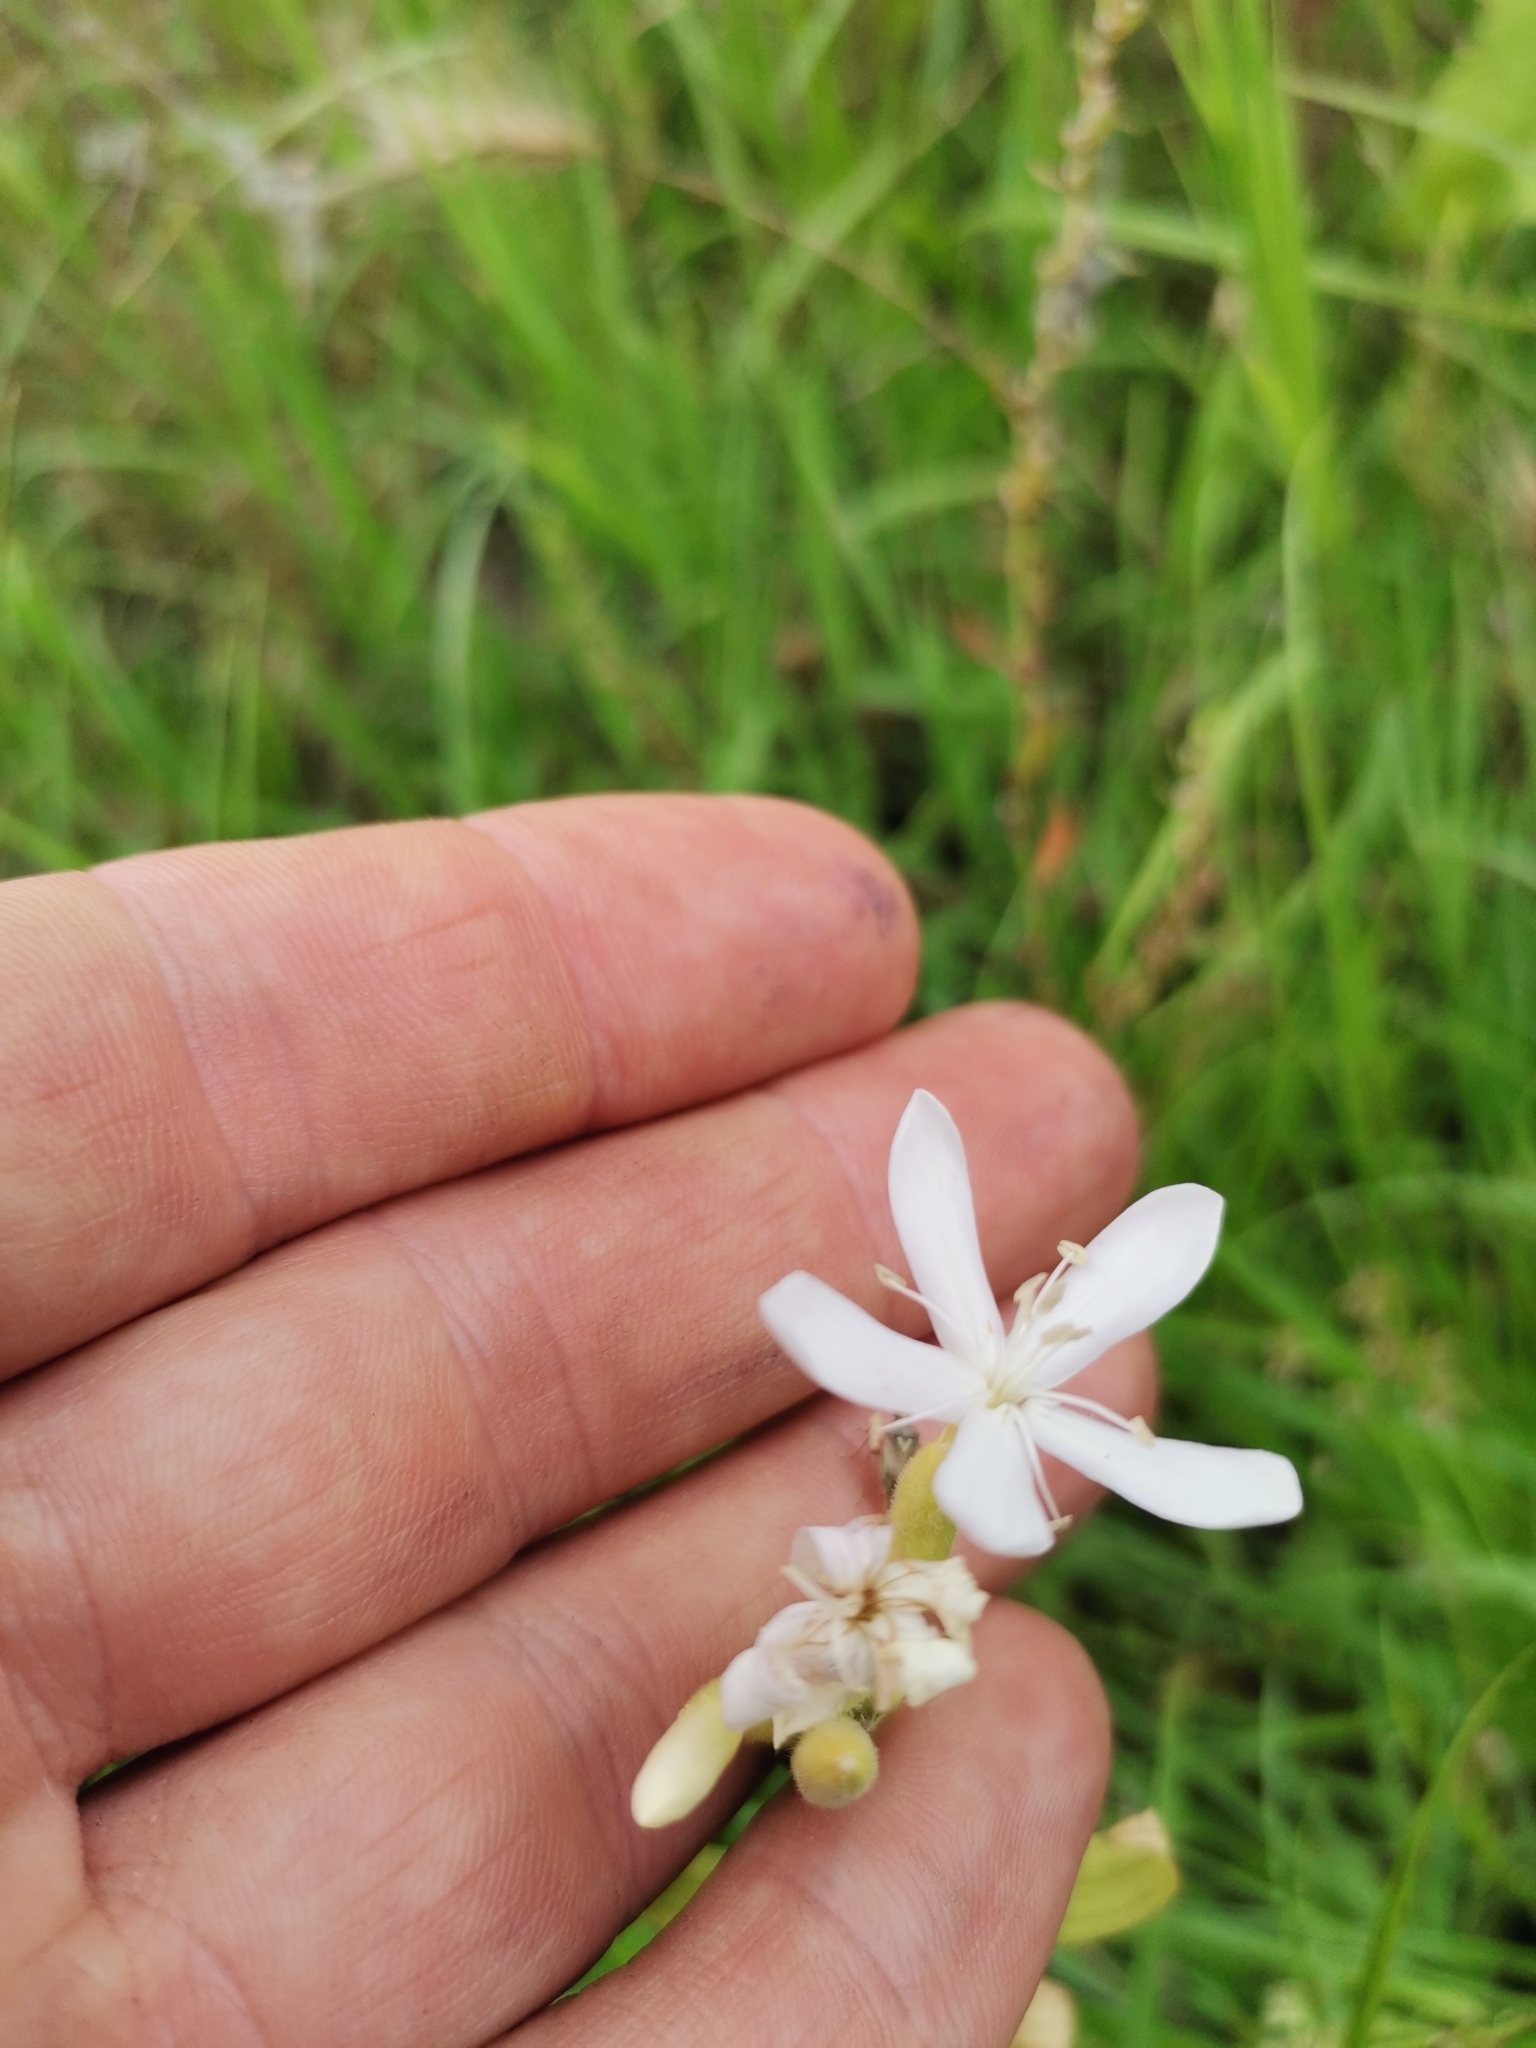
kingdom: Plantae
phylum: Tracheophyta
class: Magnoliopsida
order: Caryophyllales
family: Caryophyllaceae
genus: Saponaria
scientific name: Saponaria officinalis
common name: Soapwort
